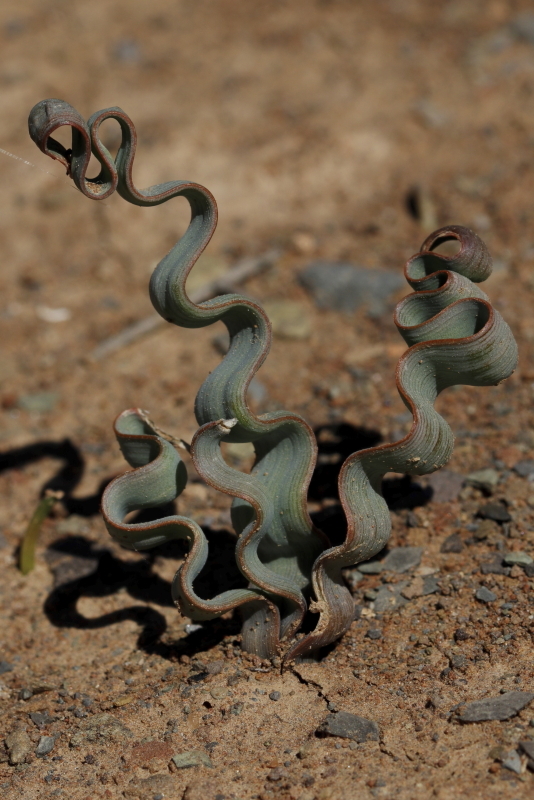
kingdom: Plantae
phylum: Tracheophyta
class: Liliopsida
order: Asparagales
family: Asphodelaceae
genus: Trachyandra
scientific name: Trachyandra tortilis
